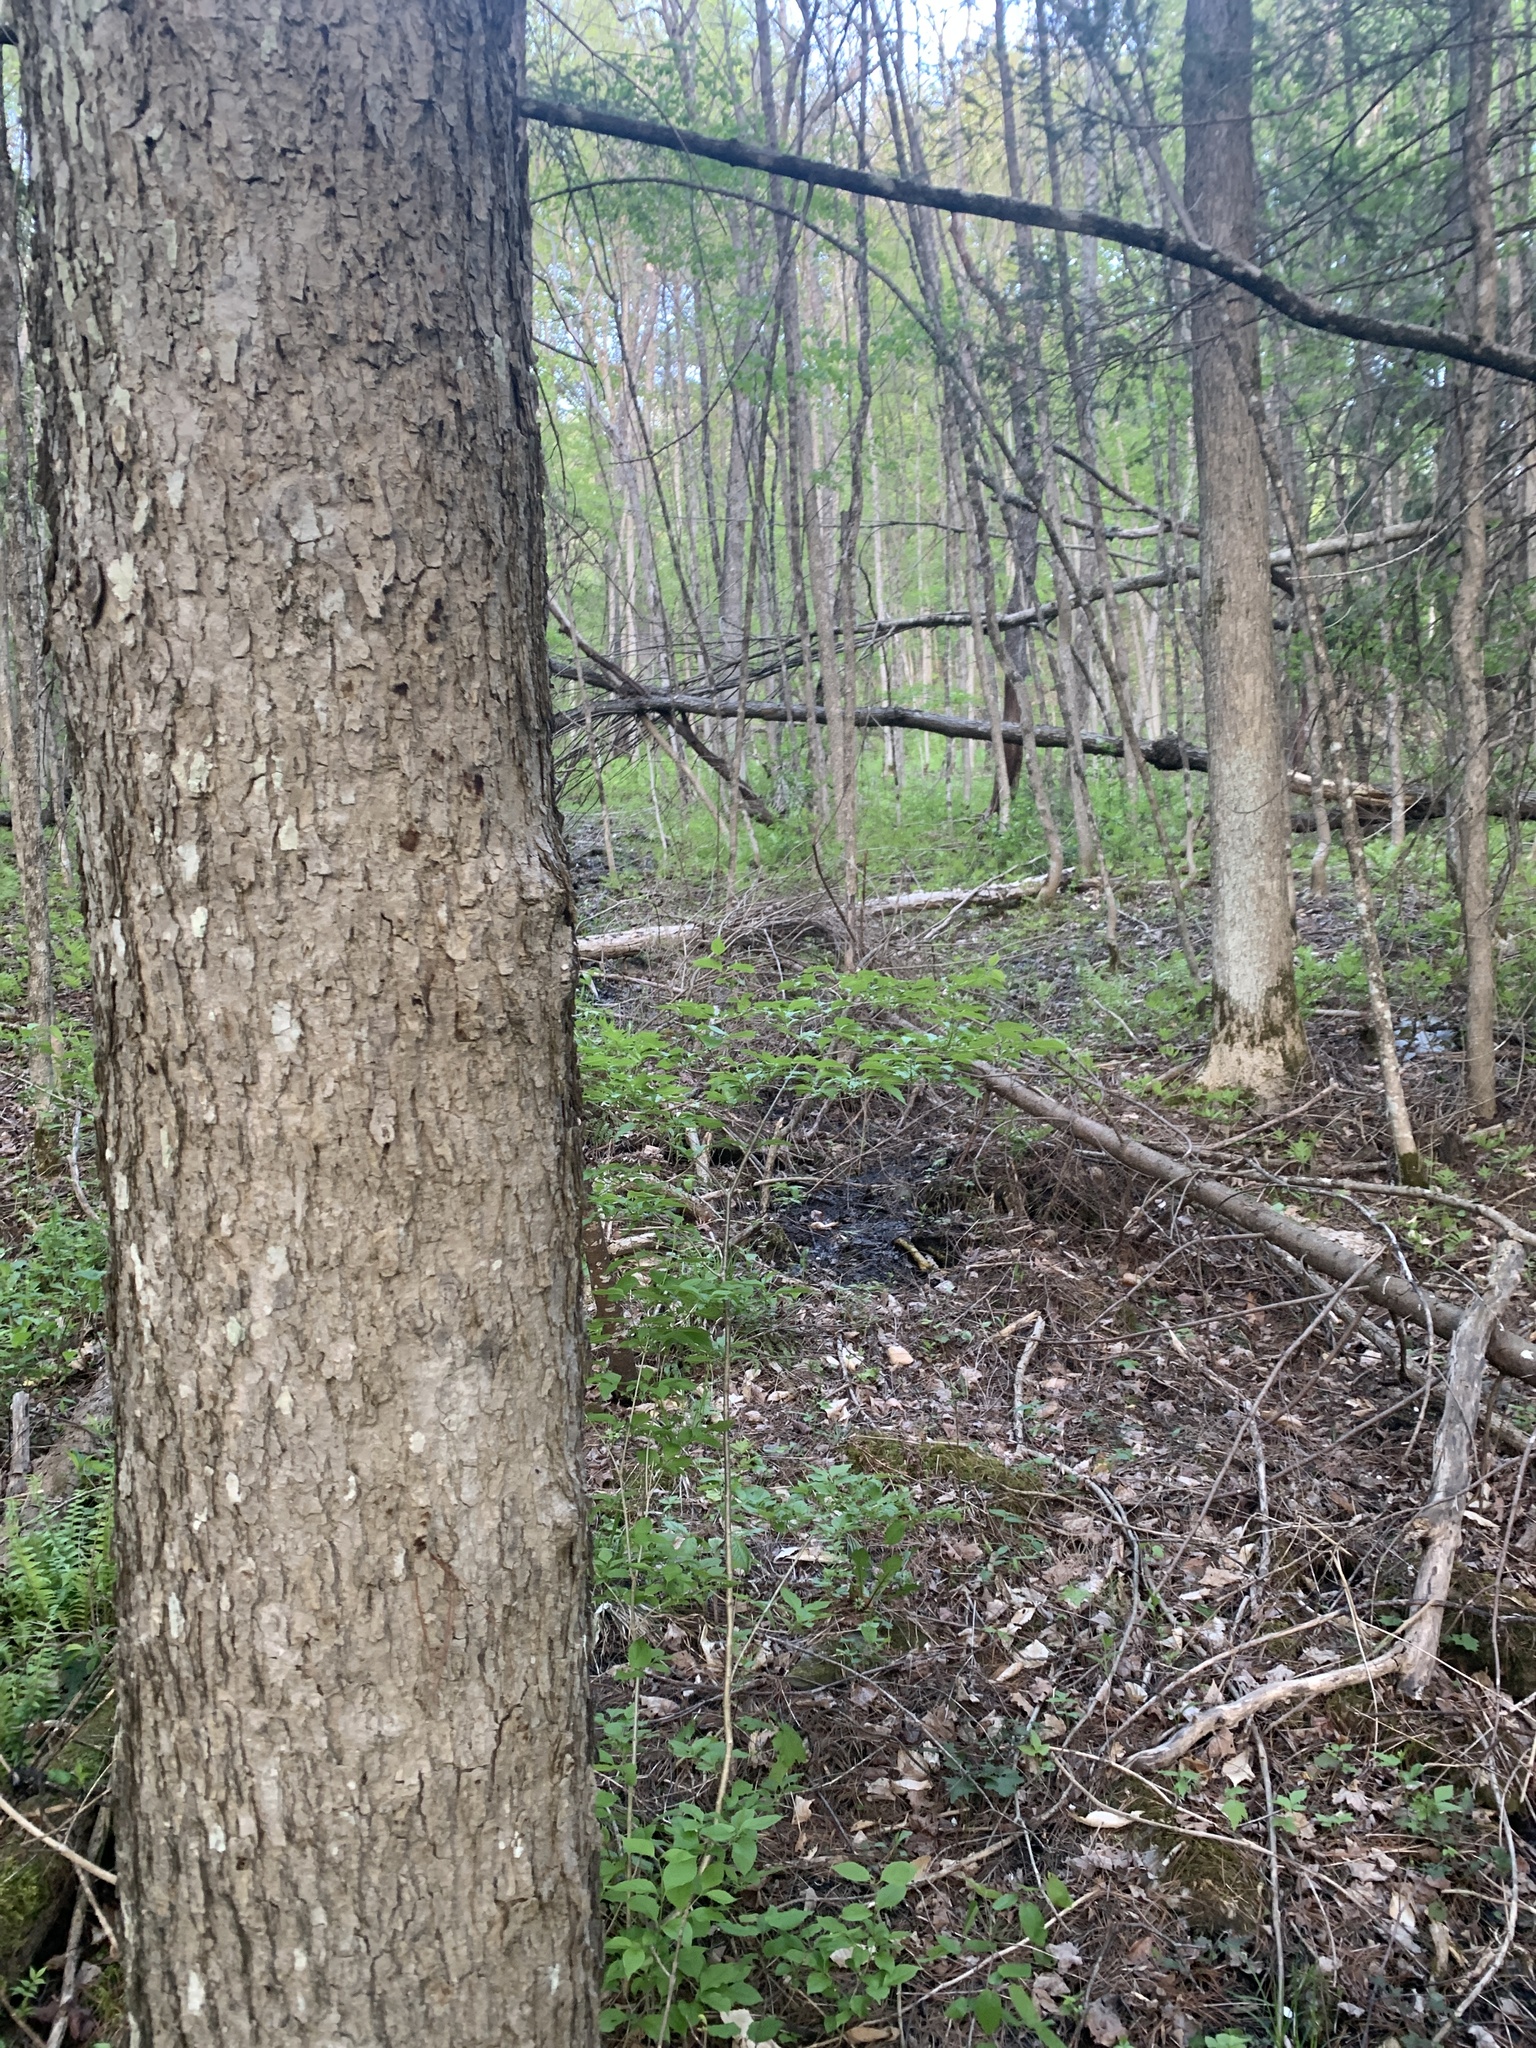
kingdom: Plantae
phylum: Tracheophyta
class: Magnoliopsida
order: Lamiales
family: Oleaceae
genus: Fraxinus
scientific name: Fraxinus nigra
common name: Black ash
